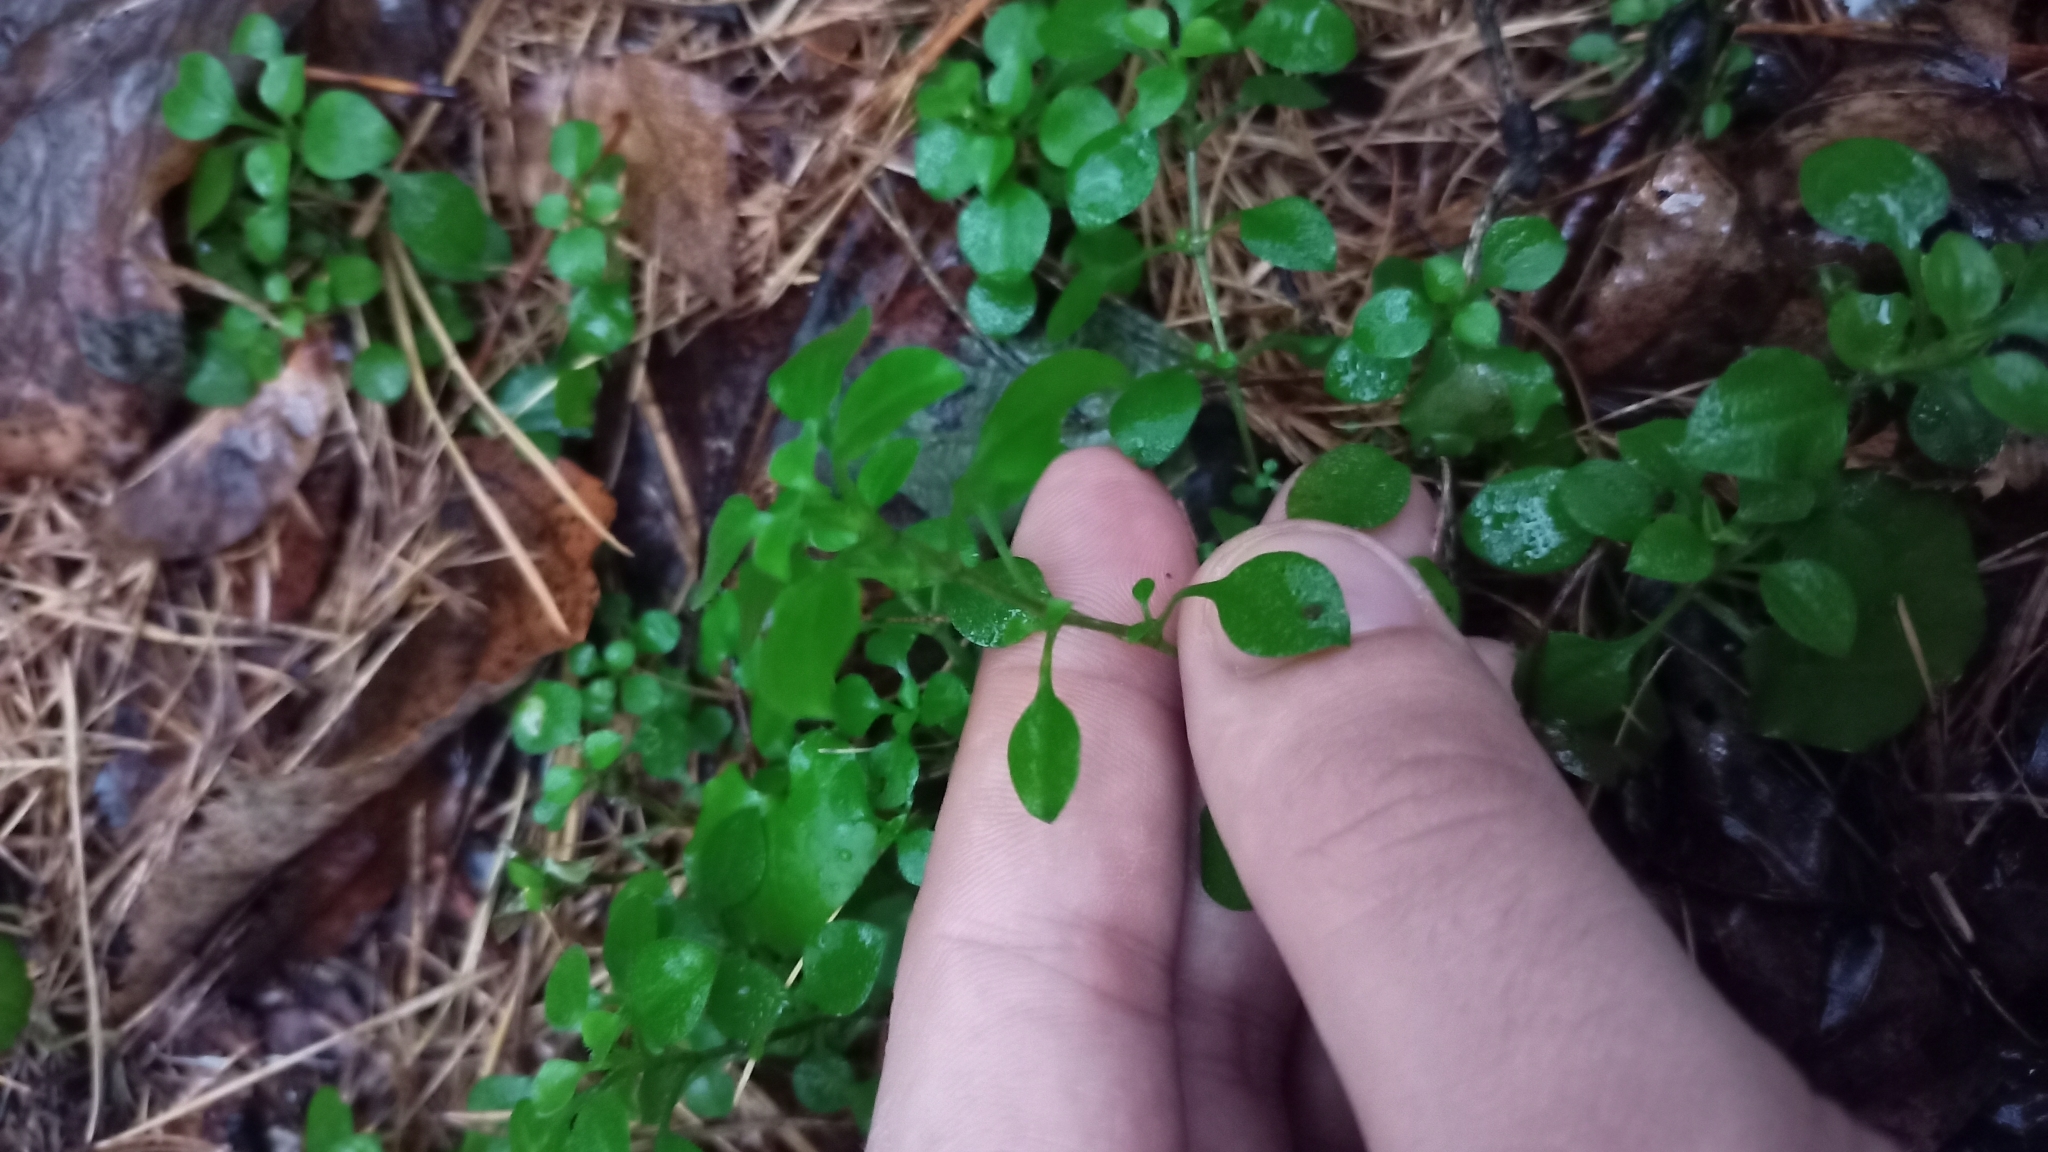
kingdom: Plantae
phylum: Tracheophyta
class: Magnoliopsida
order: Caryophyllales
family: Caryophyllaceae
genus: Moehringia
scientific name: Moehringia trinervia
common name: Three-nerved sandwort
